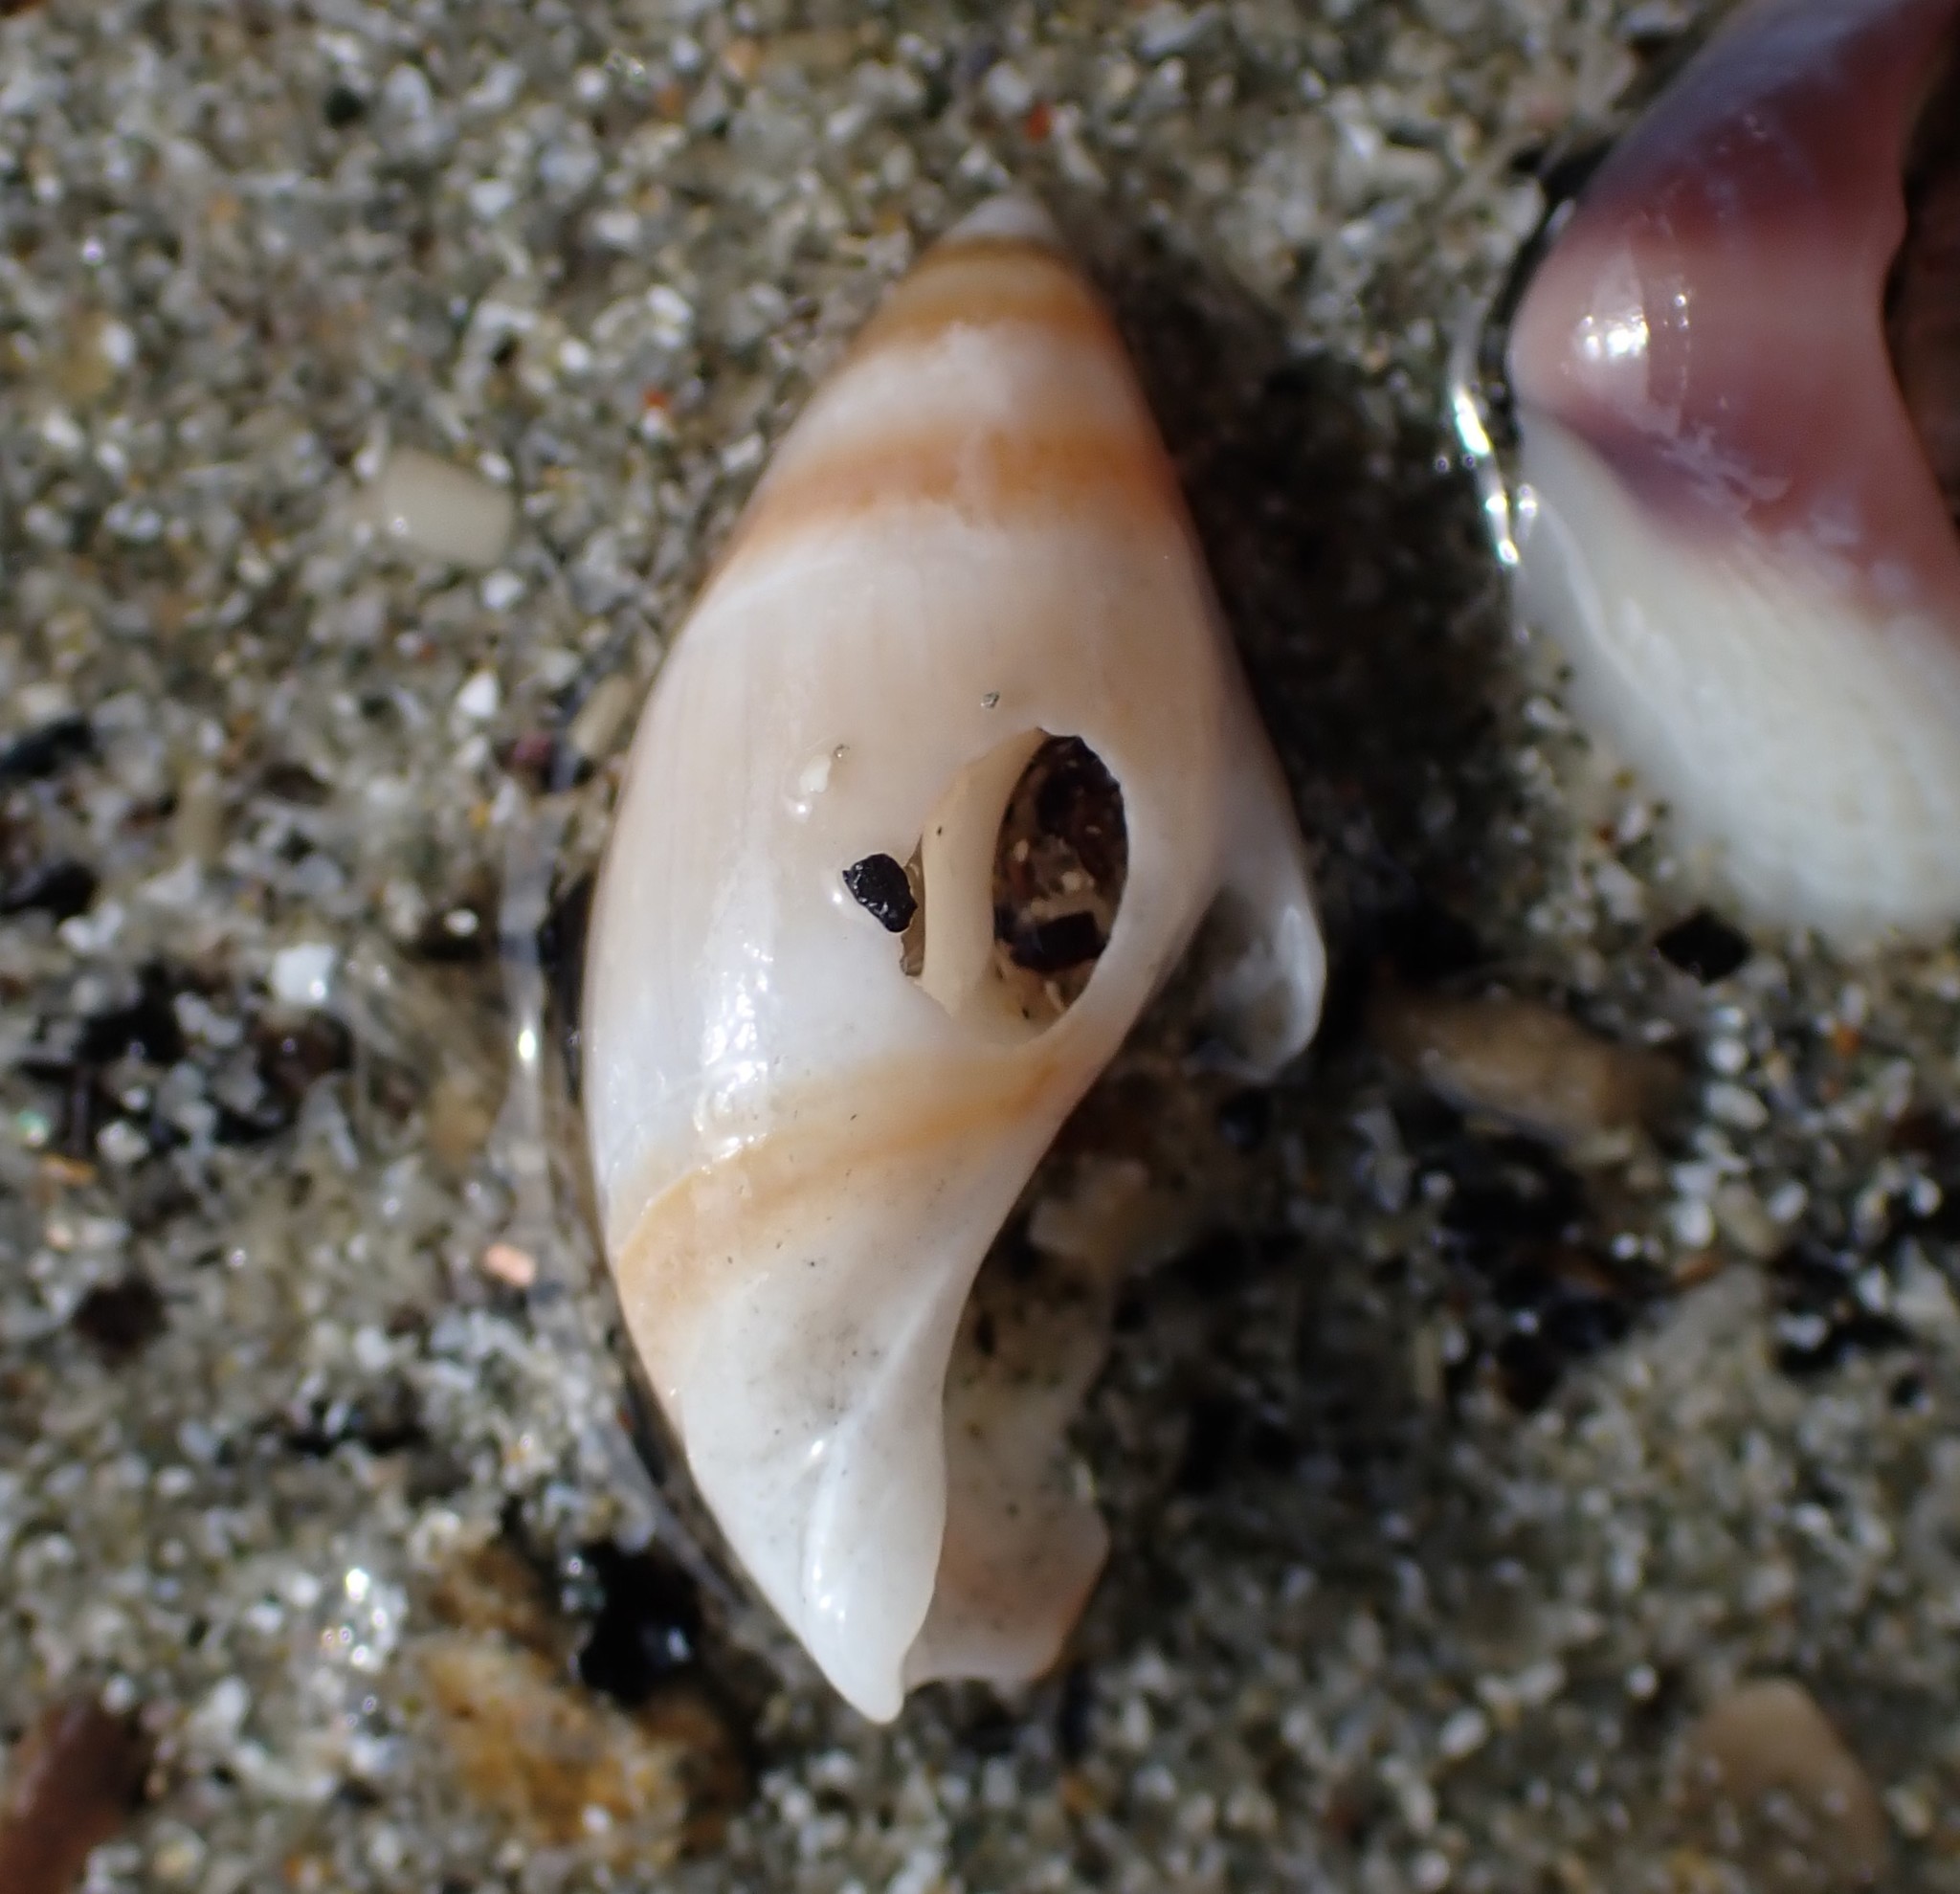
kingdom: Animalia
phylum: Mollusca
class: Gastropoda
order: Neogastropoda
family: Ancillariidae
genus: Amalda
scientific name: Amalda novaezelandiae
